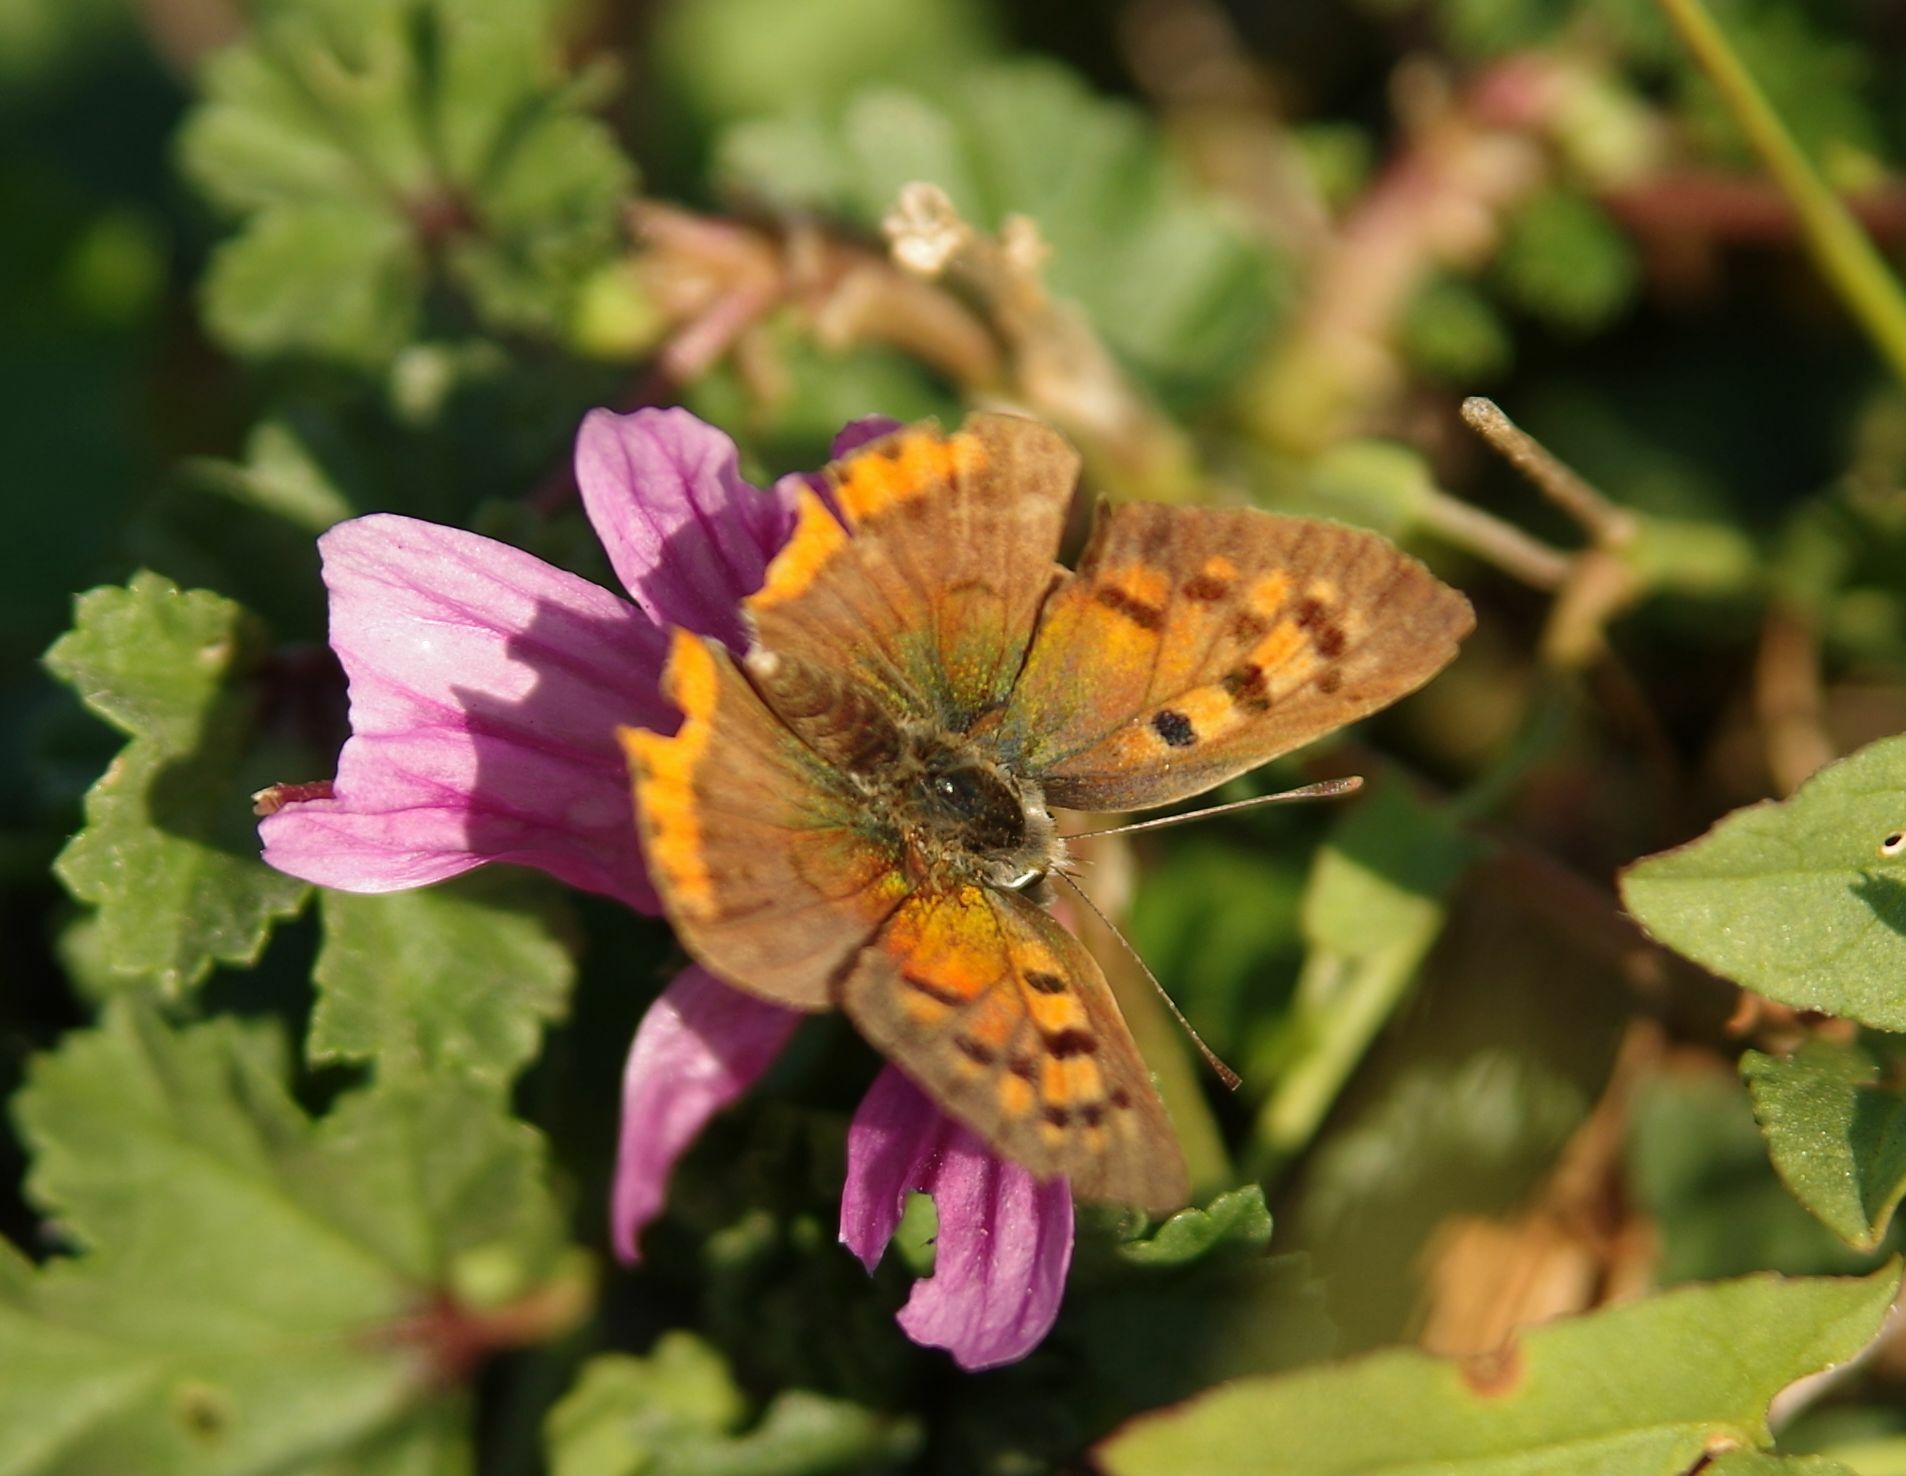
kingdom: Animalia
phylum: Arthropoda
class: Insecta
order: Lepidoptera
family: Lycaenidae
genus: Lycaena
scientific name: Lycaena phlaeas
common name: Small copper
